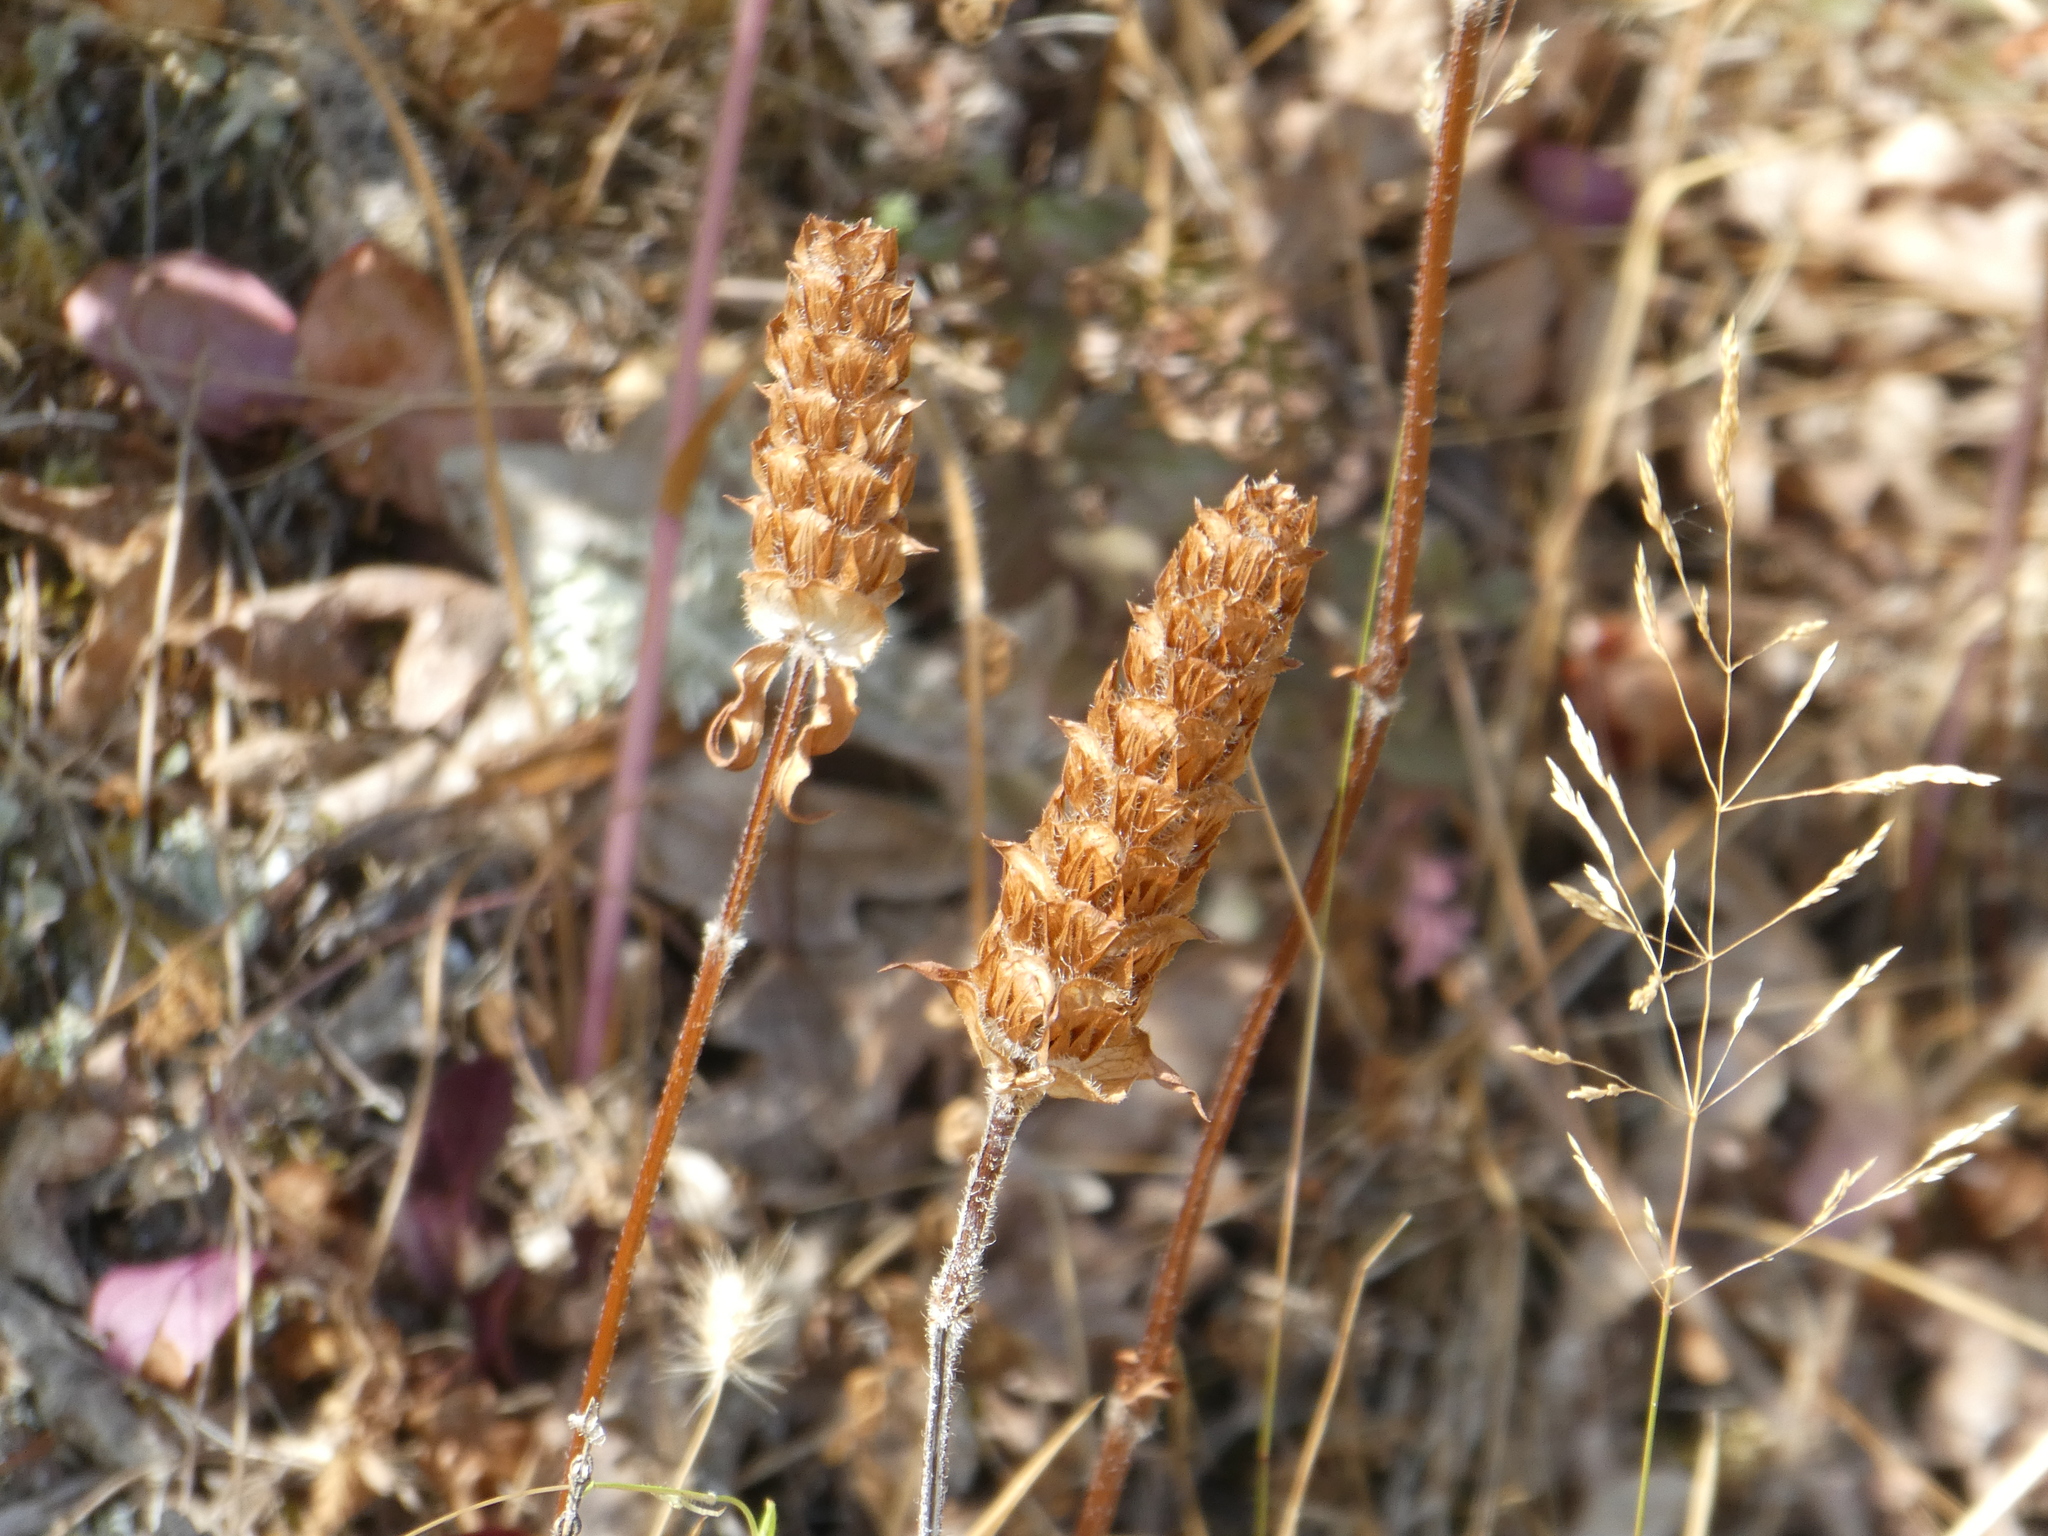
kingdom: Plantae
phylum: Tracheophyta
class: Magnoliopsida
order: Lamiales
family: Lamiaceae
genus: Prunella
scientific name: Prunella vulgaris
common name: Heal-all
